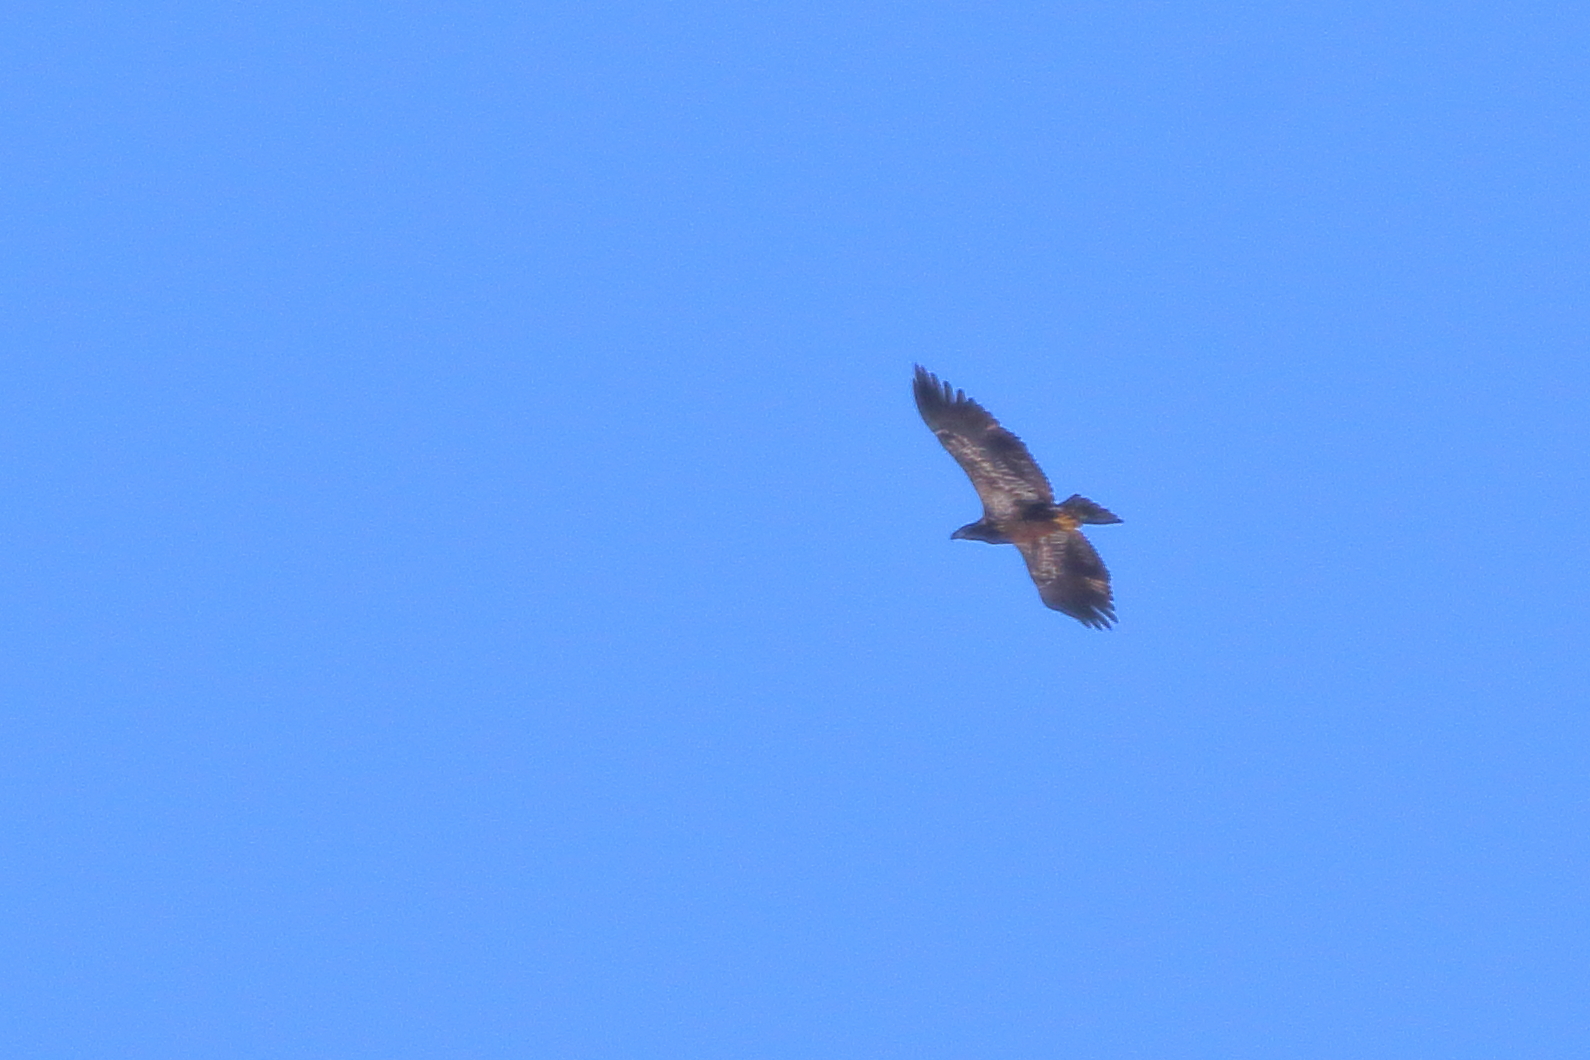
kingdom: Animalia
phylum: Chordata
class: Aves
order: Accipitriformes
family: Accipitridae
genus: Haliaeetus
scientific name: Haliaeetus leucocephalus
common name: Bald eagle
